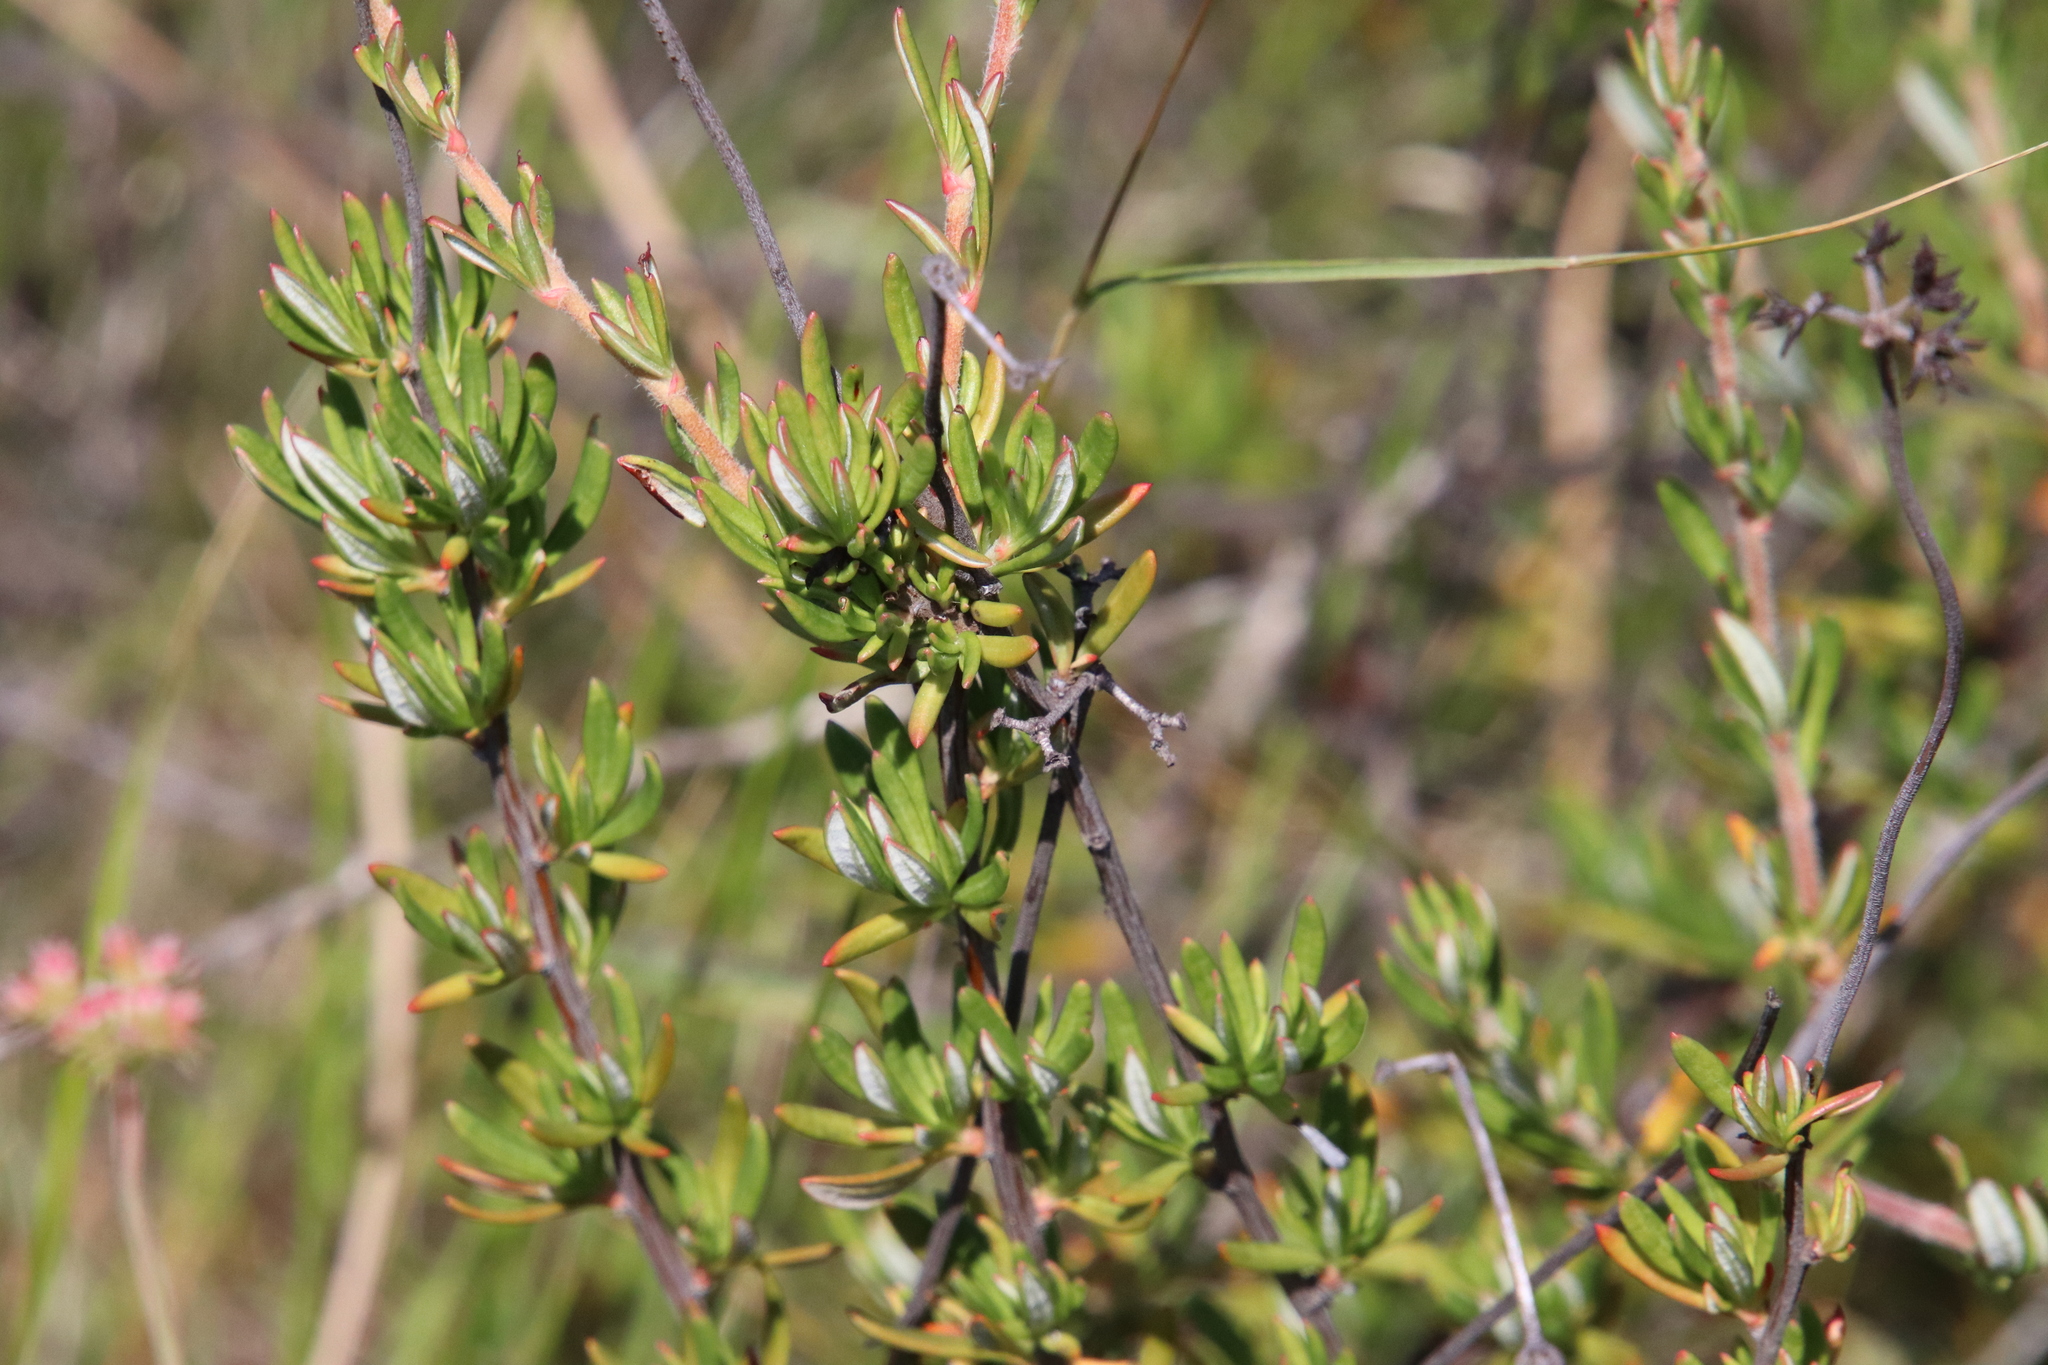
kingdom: Plantae
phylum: Tracheophyta
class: Magnoliopsida
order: Caryophyllales
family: Polygonaceae
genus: Eriogonum
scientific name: Eriogonum fasciculatum
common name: California wild buckwheat
